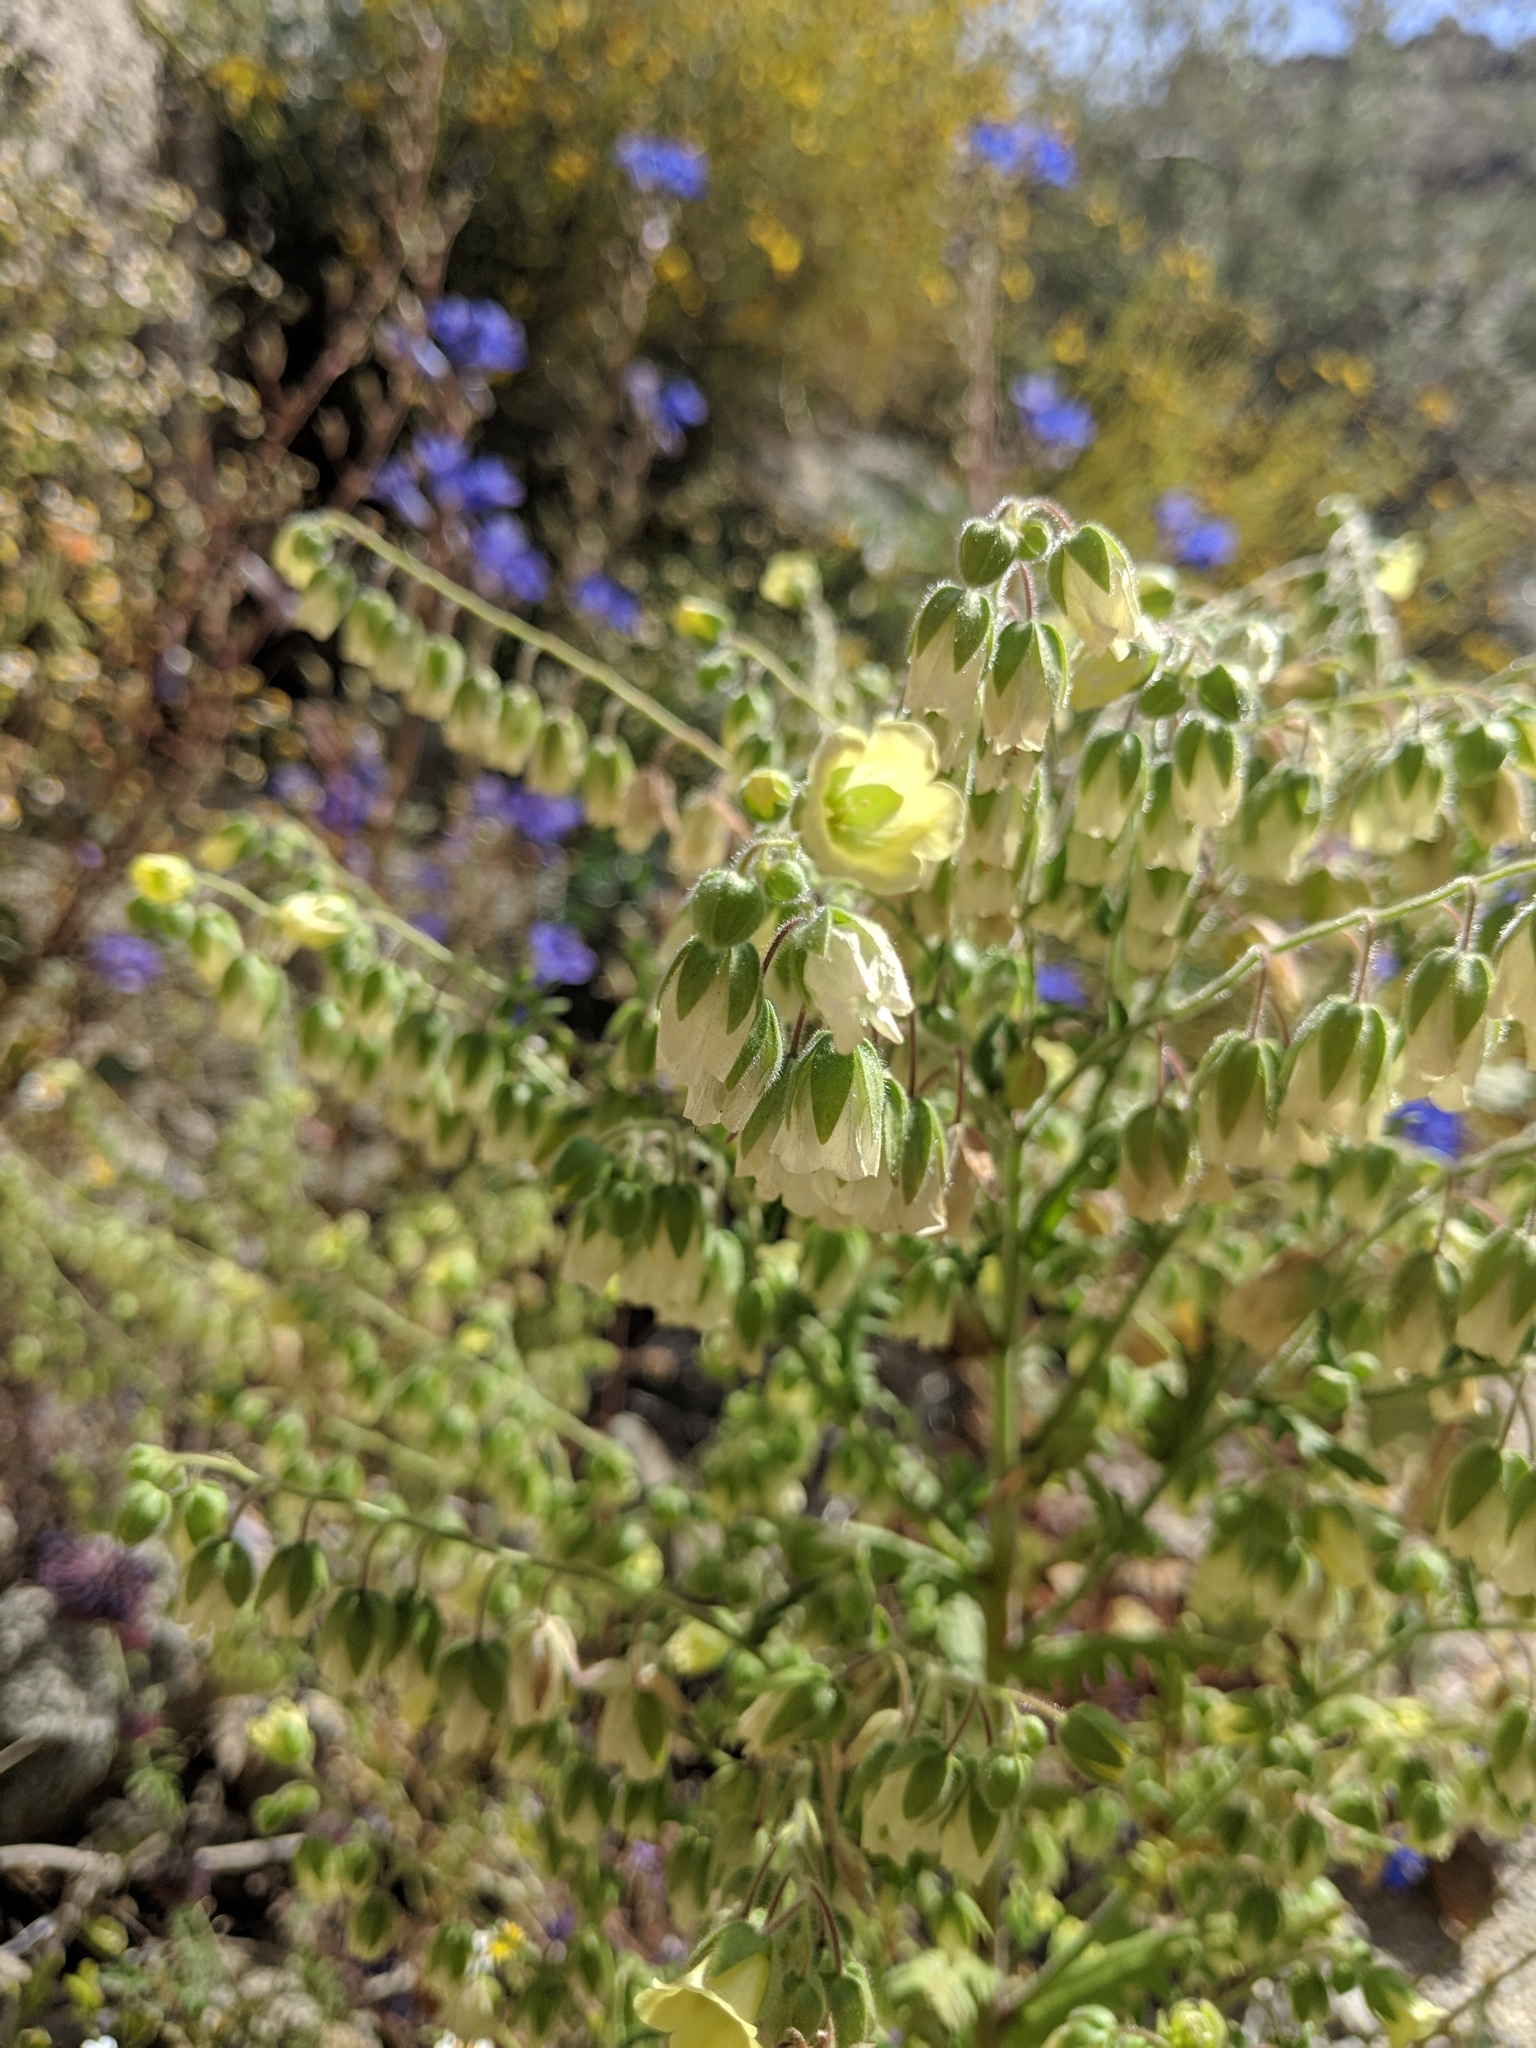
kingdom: Plantae
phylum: Tracheophyta
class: Magnoliopsida
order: Boraginales
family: Hydrophyllaceae
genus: Emmenanthe
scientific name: Emmenanthe penduliflora
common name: Whispering-bells
